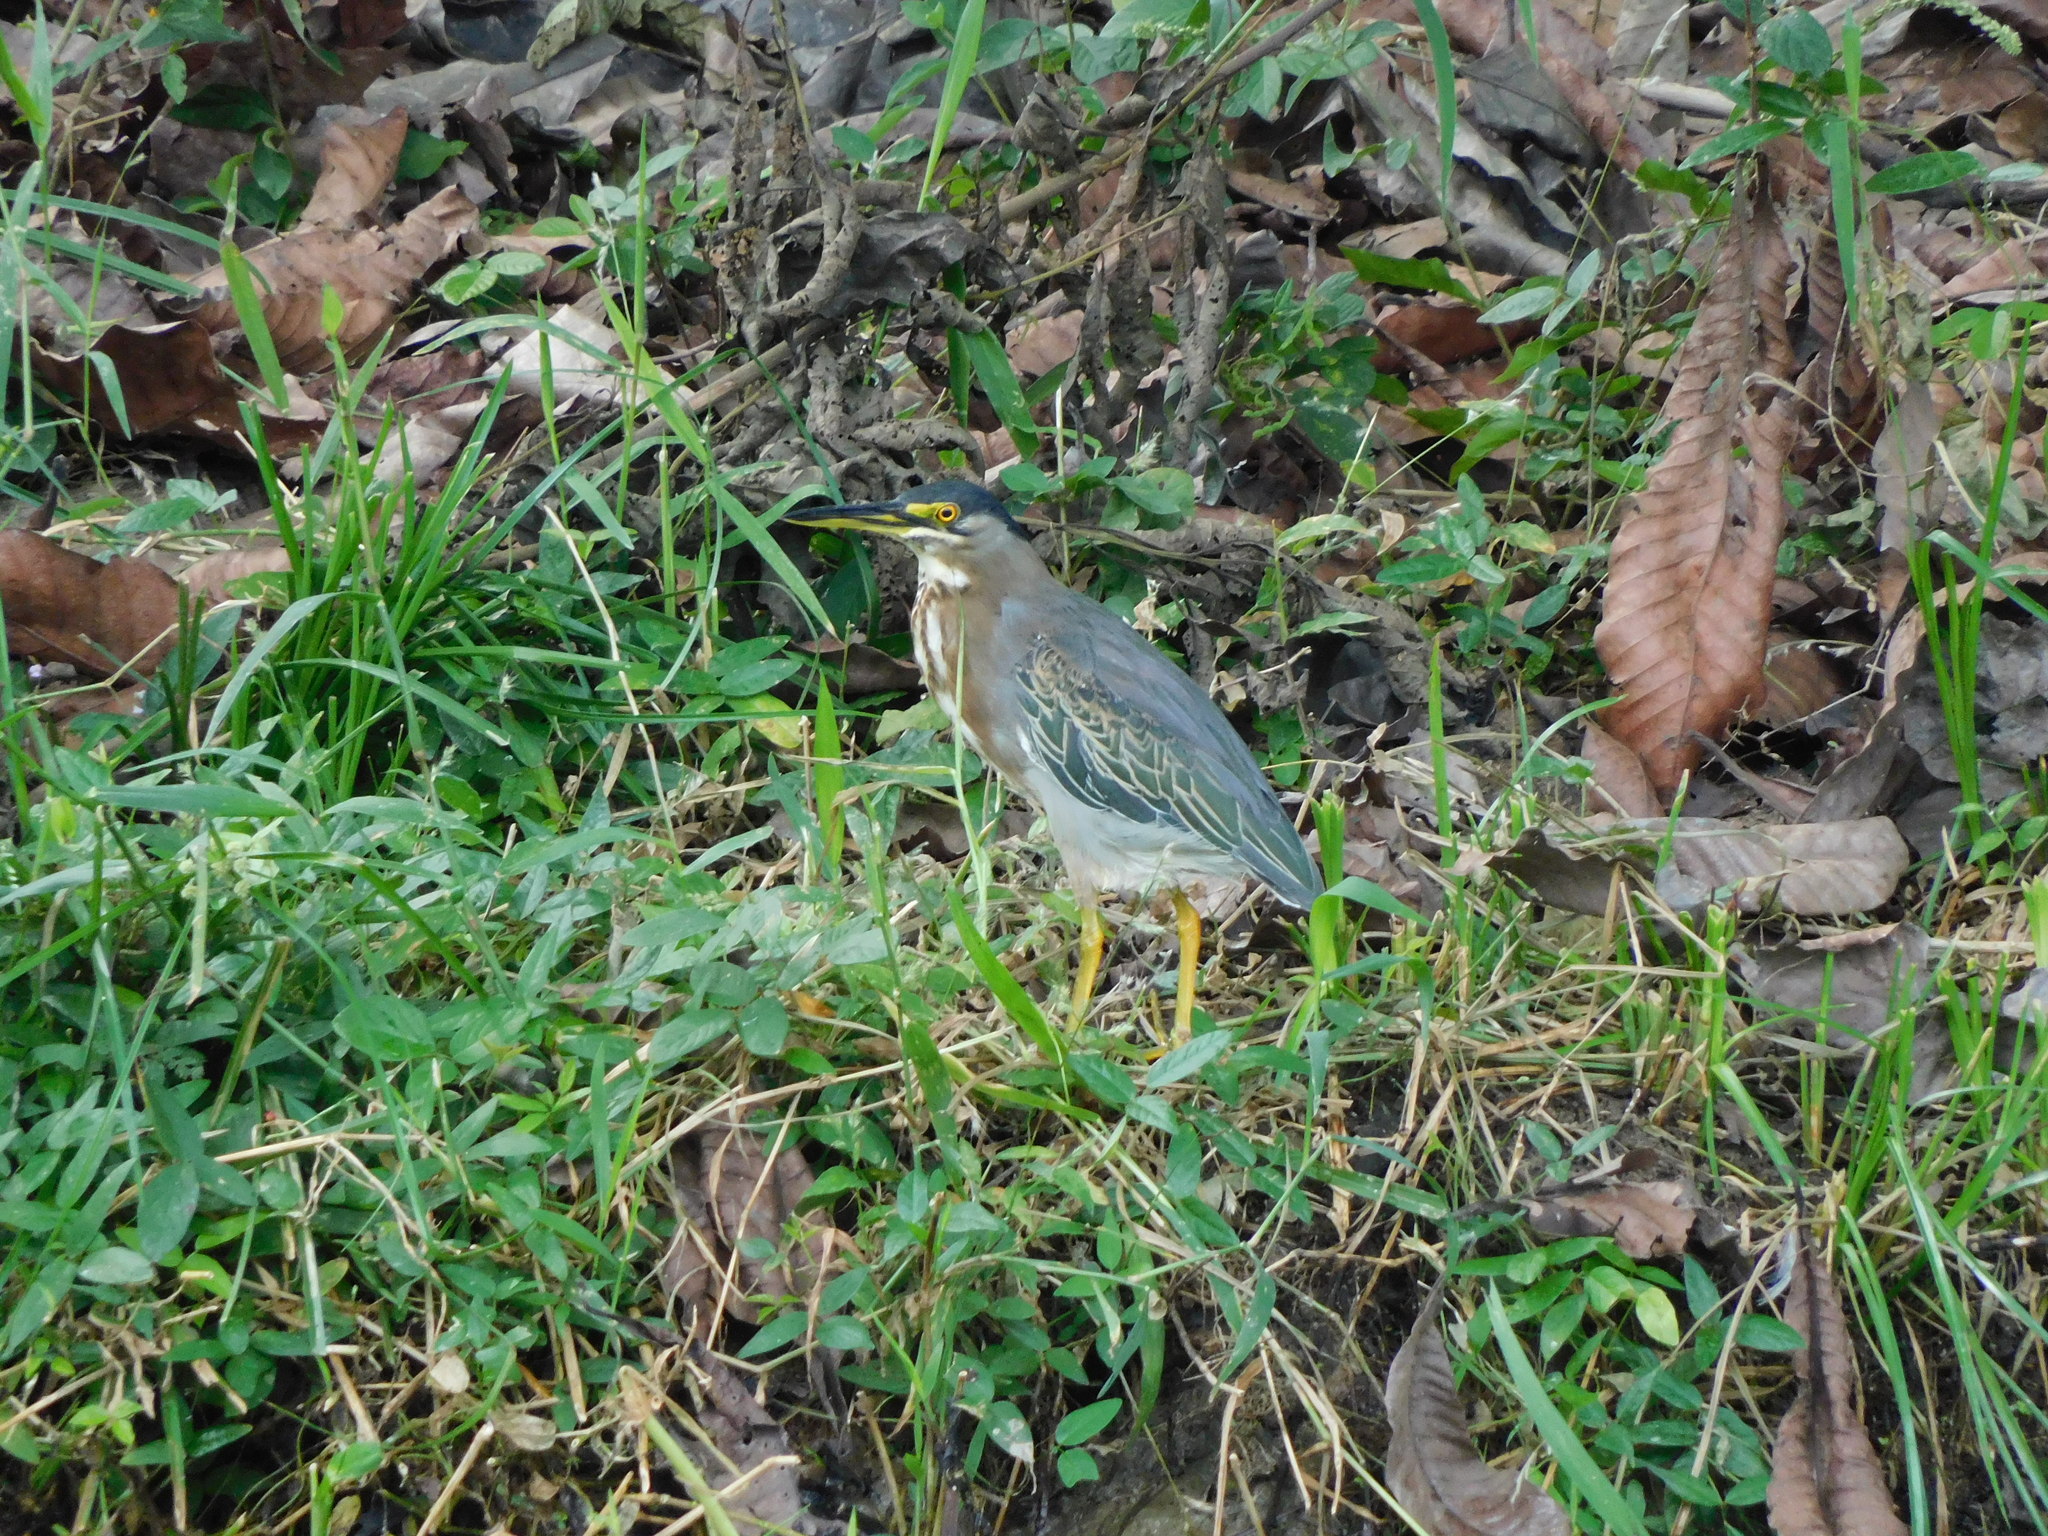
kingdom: Animalia
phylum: Chordata
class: Aves
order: Pelecaniformes
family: Ardeidae
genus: Butorides
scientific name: Butorides striata
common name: Striated heron
